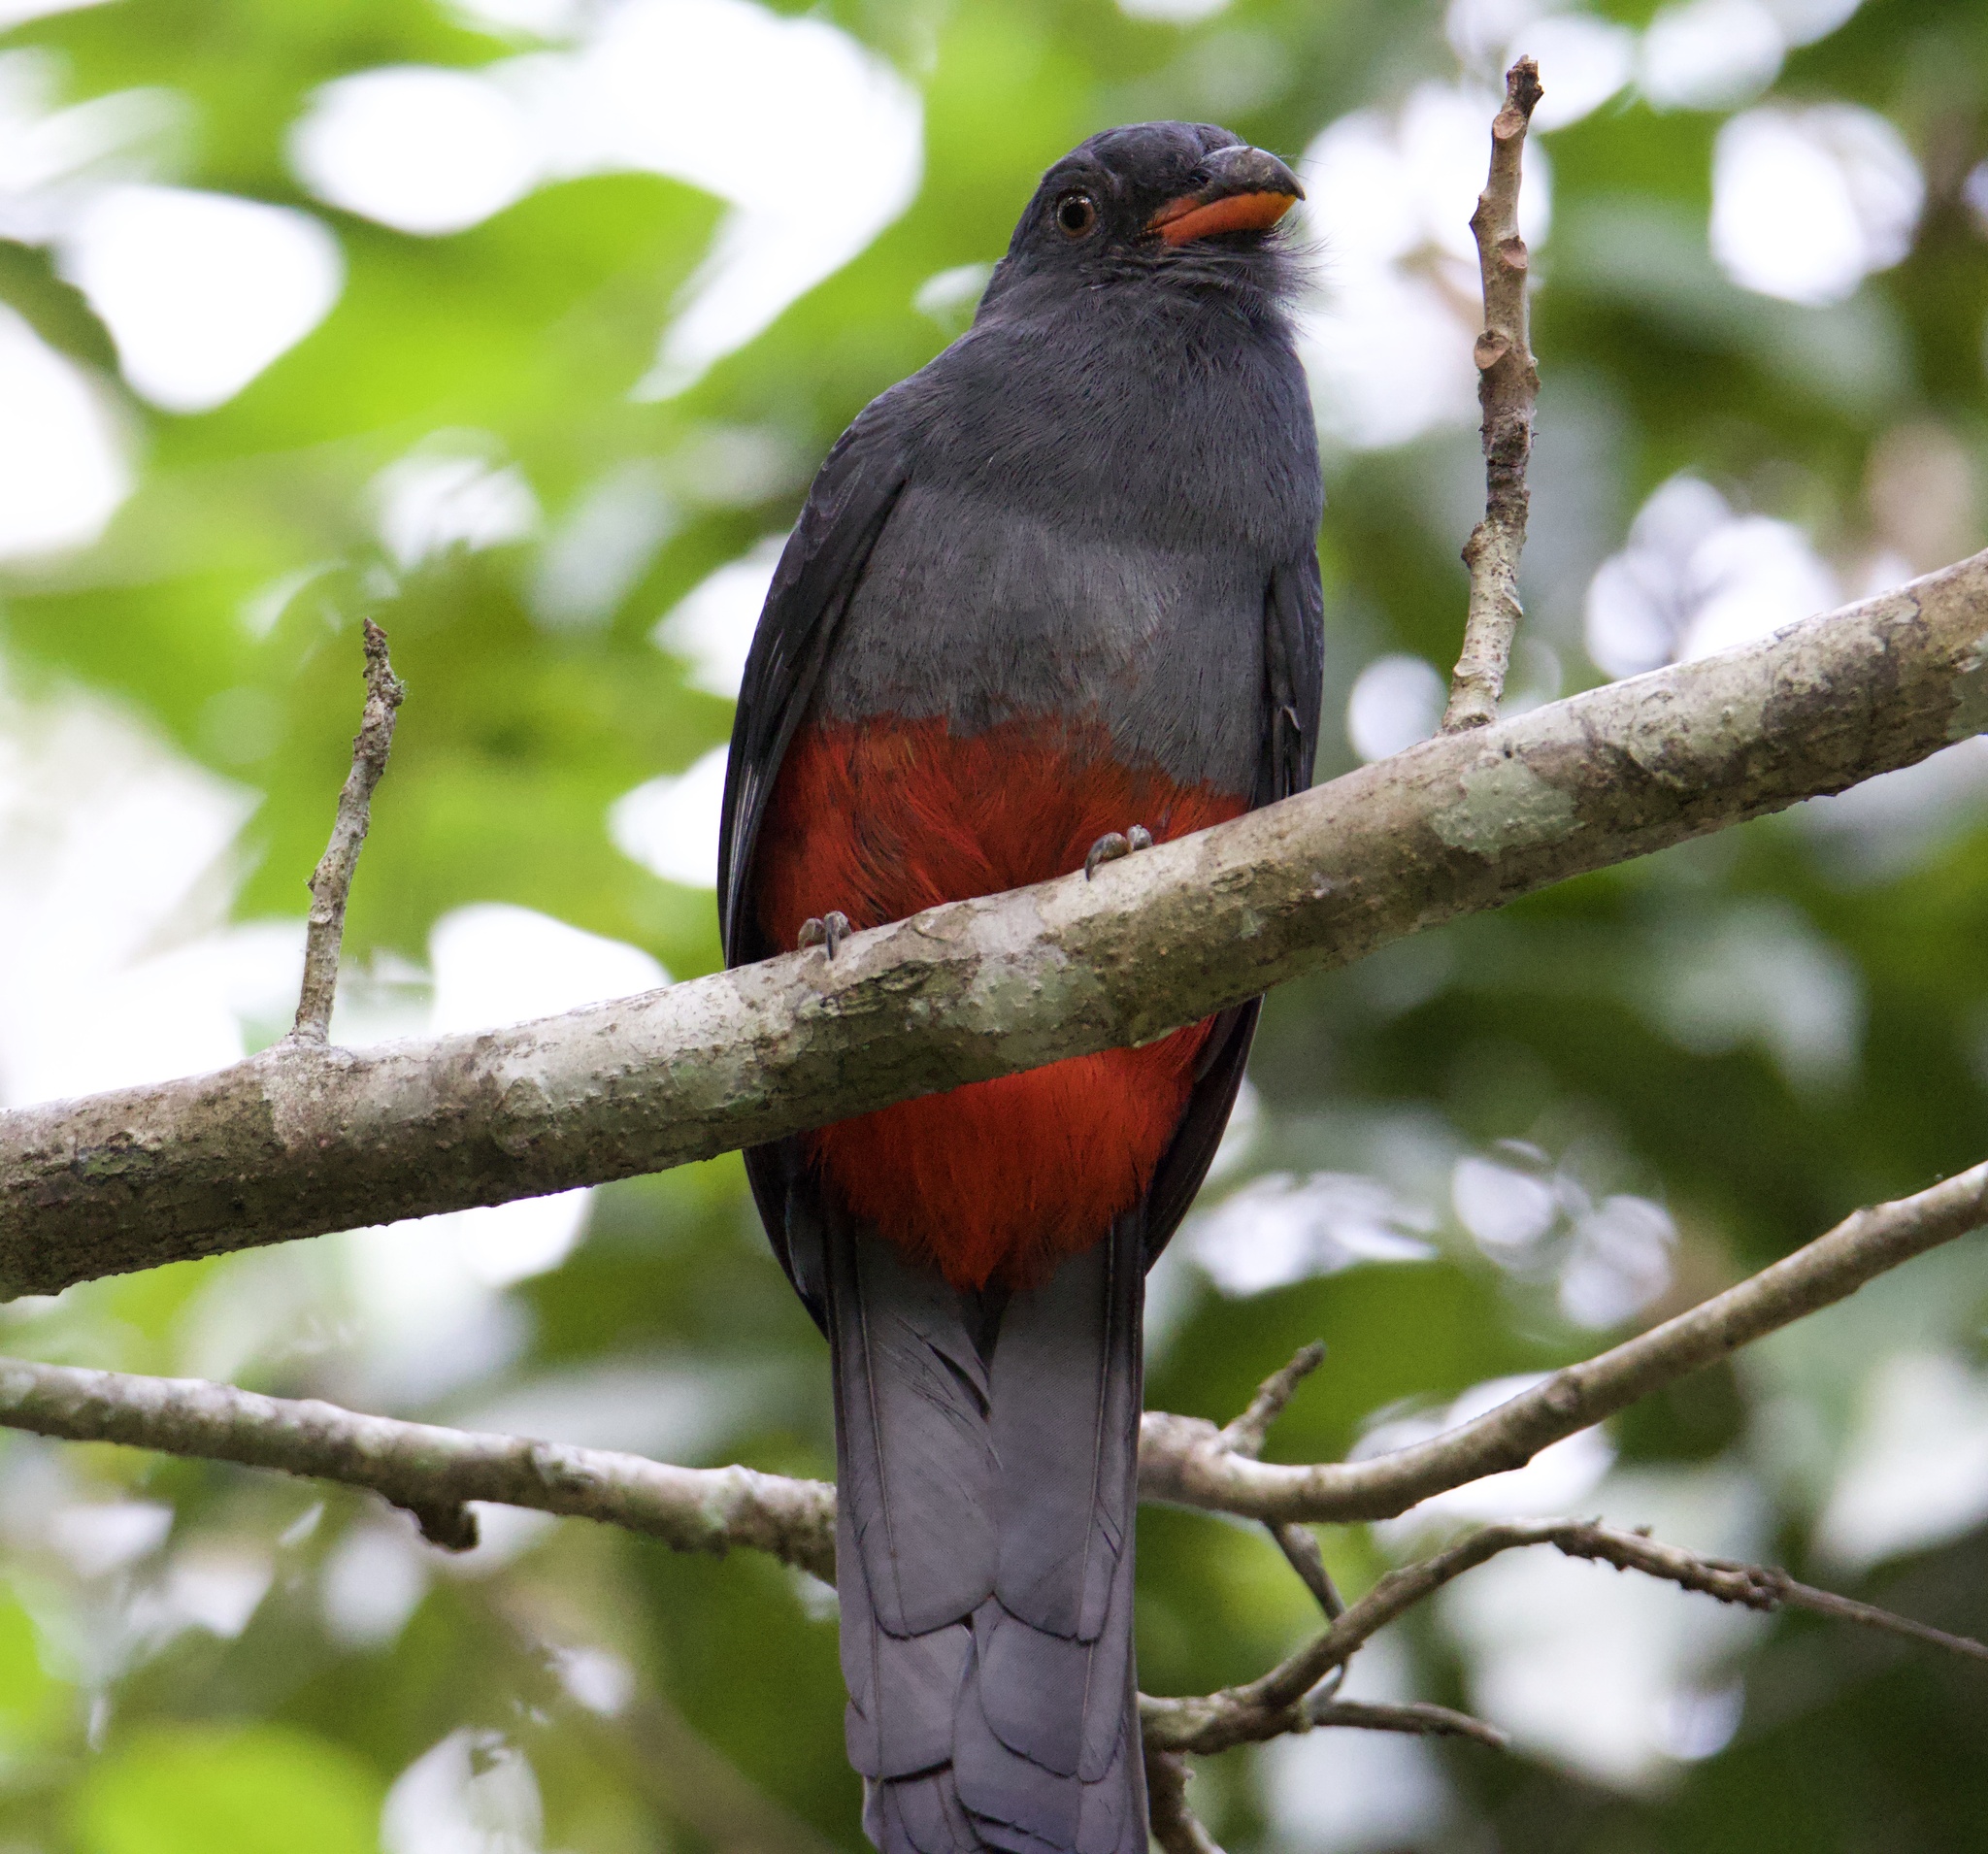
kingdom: Animalia
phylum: Chordata
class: Aves
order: Trogoniformes
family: Trogonidae
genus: Trogon
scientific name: Trogon massena
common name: Slaty-tailed trogon
